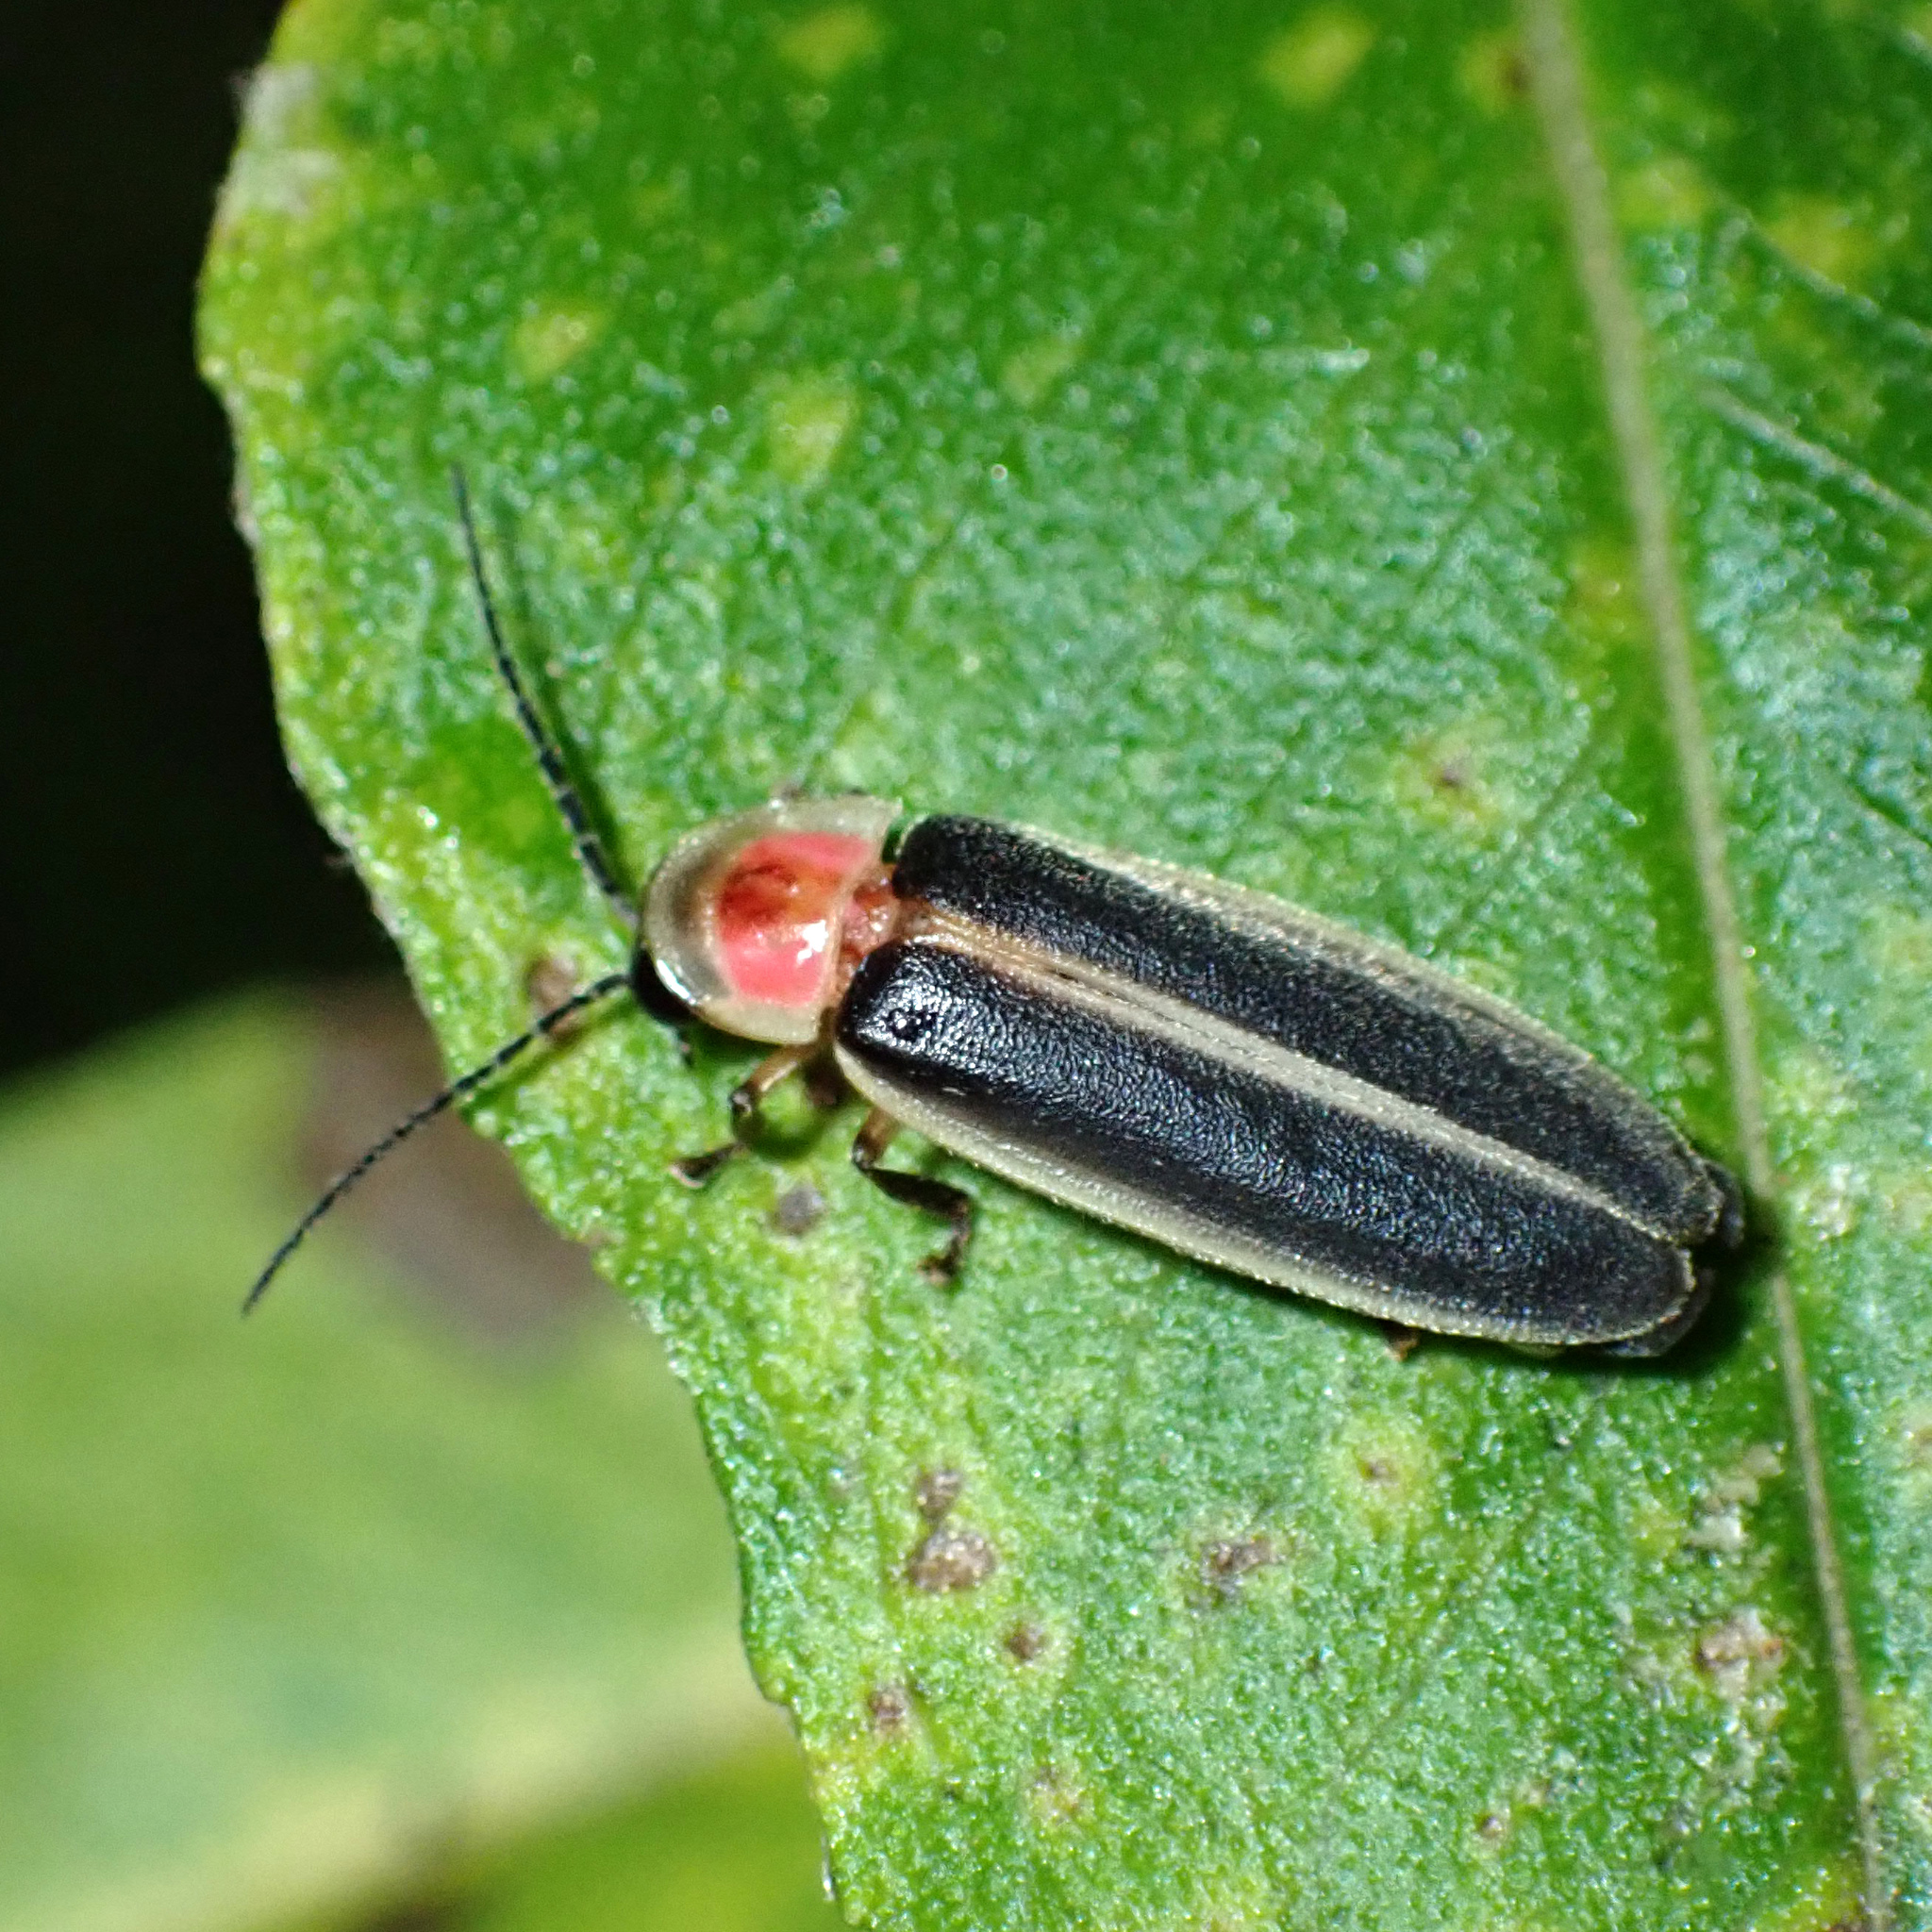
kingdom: Animalia
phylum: Arthropoda
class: Insecta
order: Coleoptera
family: Lampyridae
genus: Photinus
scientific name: Photinus pyralis
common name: Big dipper firefly
